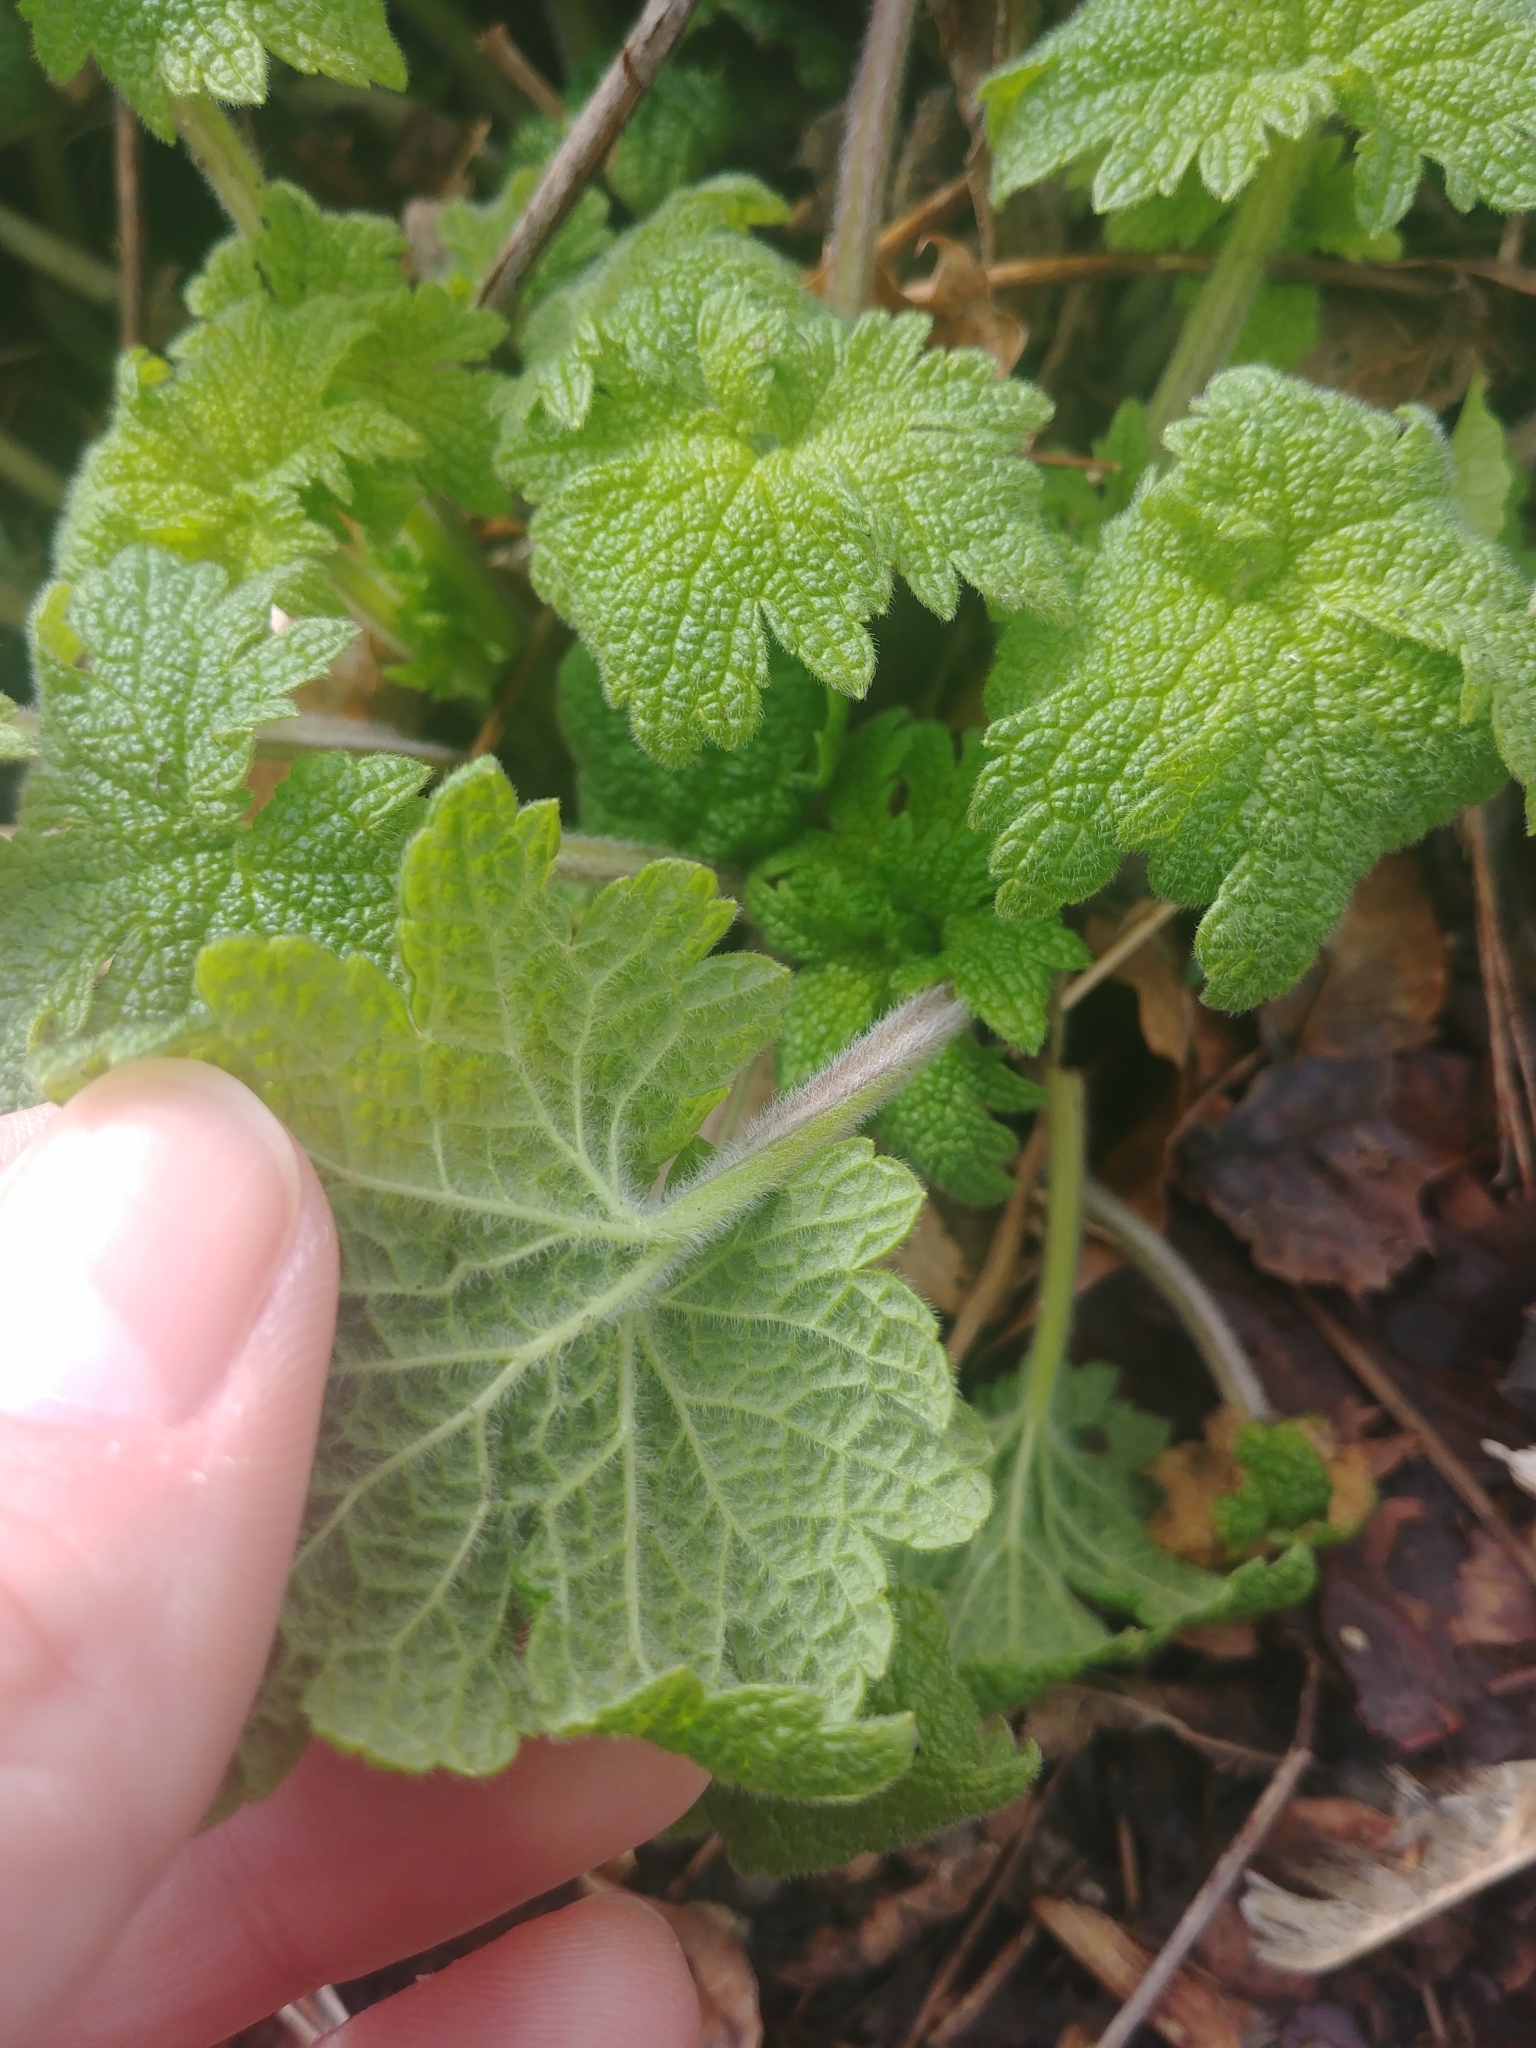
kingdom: Plantae
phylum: Tracheophyta
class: Magnoliopsida
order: Lamiales
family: Lamiaceae
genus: Leonurus
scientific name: Leonurus cardiaca
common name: Motherwort
